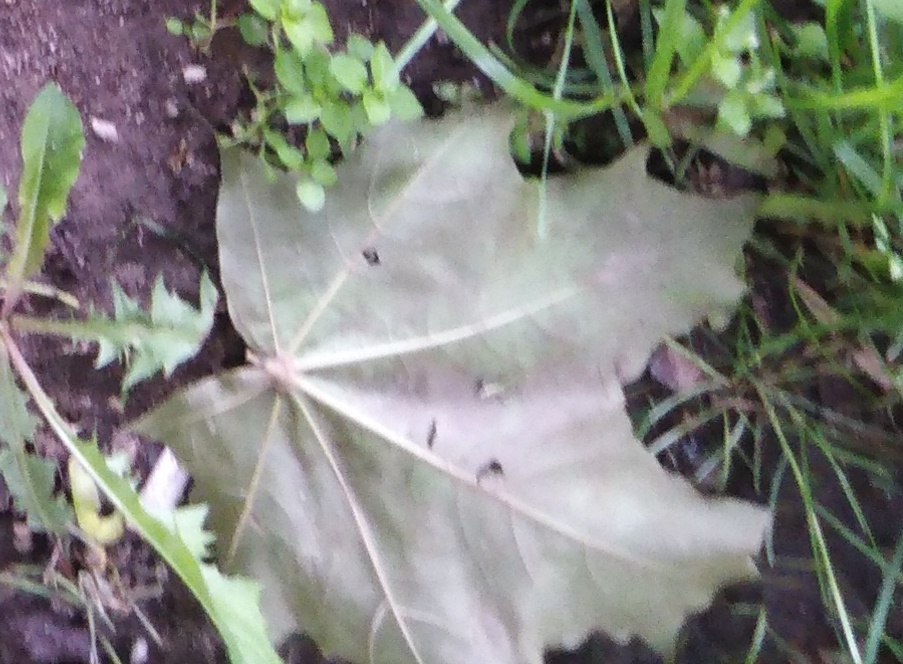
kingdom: Plantae
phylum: Tracheophyta
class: Magnoliopsida
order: Sapindales
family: Sapindaceae
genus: Acer
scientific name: Acer platanoides
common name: Norway maple
